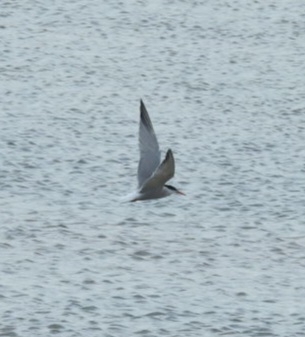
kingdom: Animalia
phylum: Chordata
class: Aves
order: Charadriiformes
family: Laridae
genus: Sterna
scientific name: Sterna hirundo
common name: Common tern
